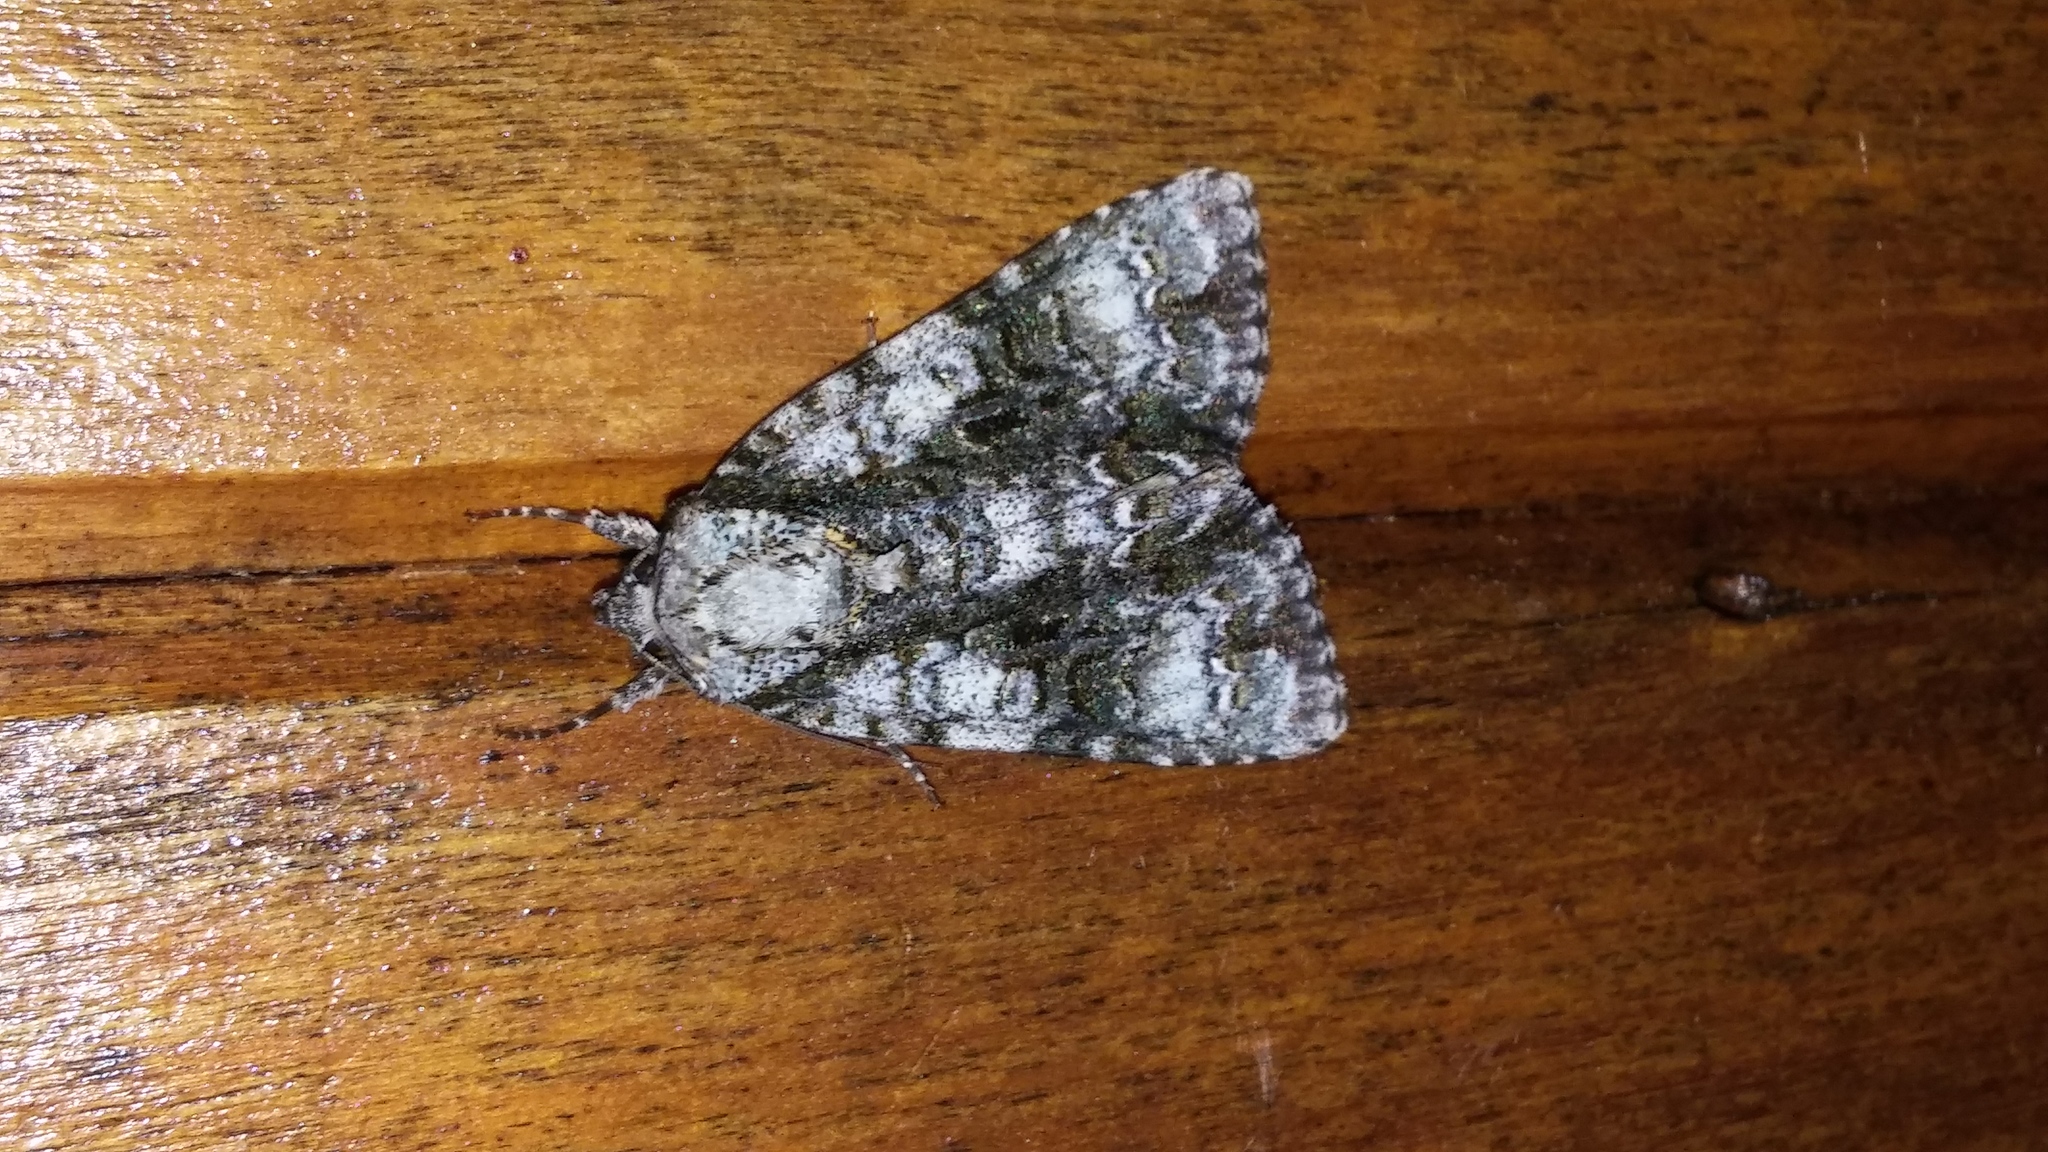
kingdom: Animalia
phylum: Arthropoda
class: Insecta
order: Lepidoptera
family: Noctuidae
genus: Acronicta
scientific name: Acronicta superans
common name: Splendid dagger
